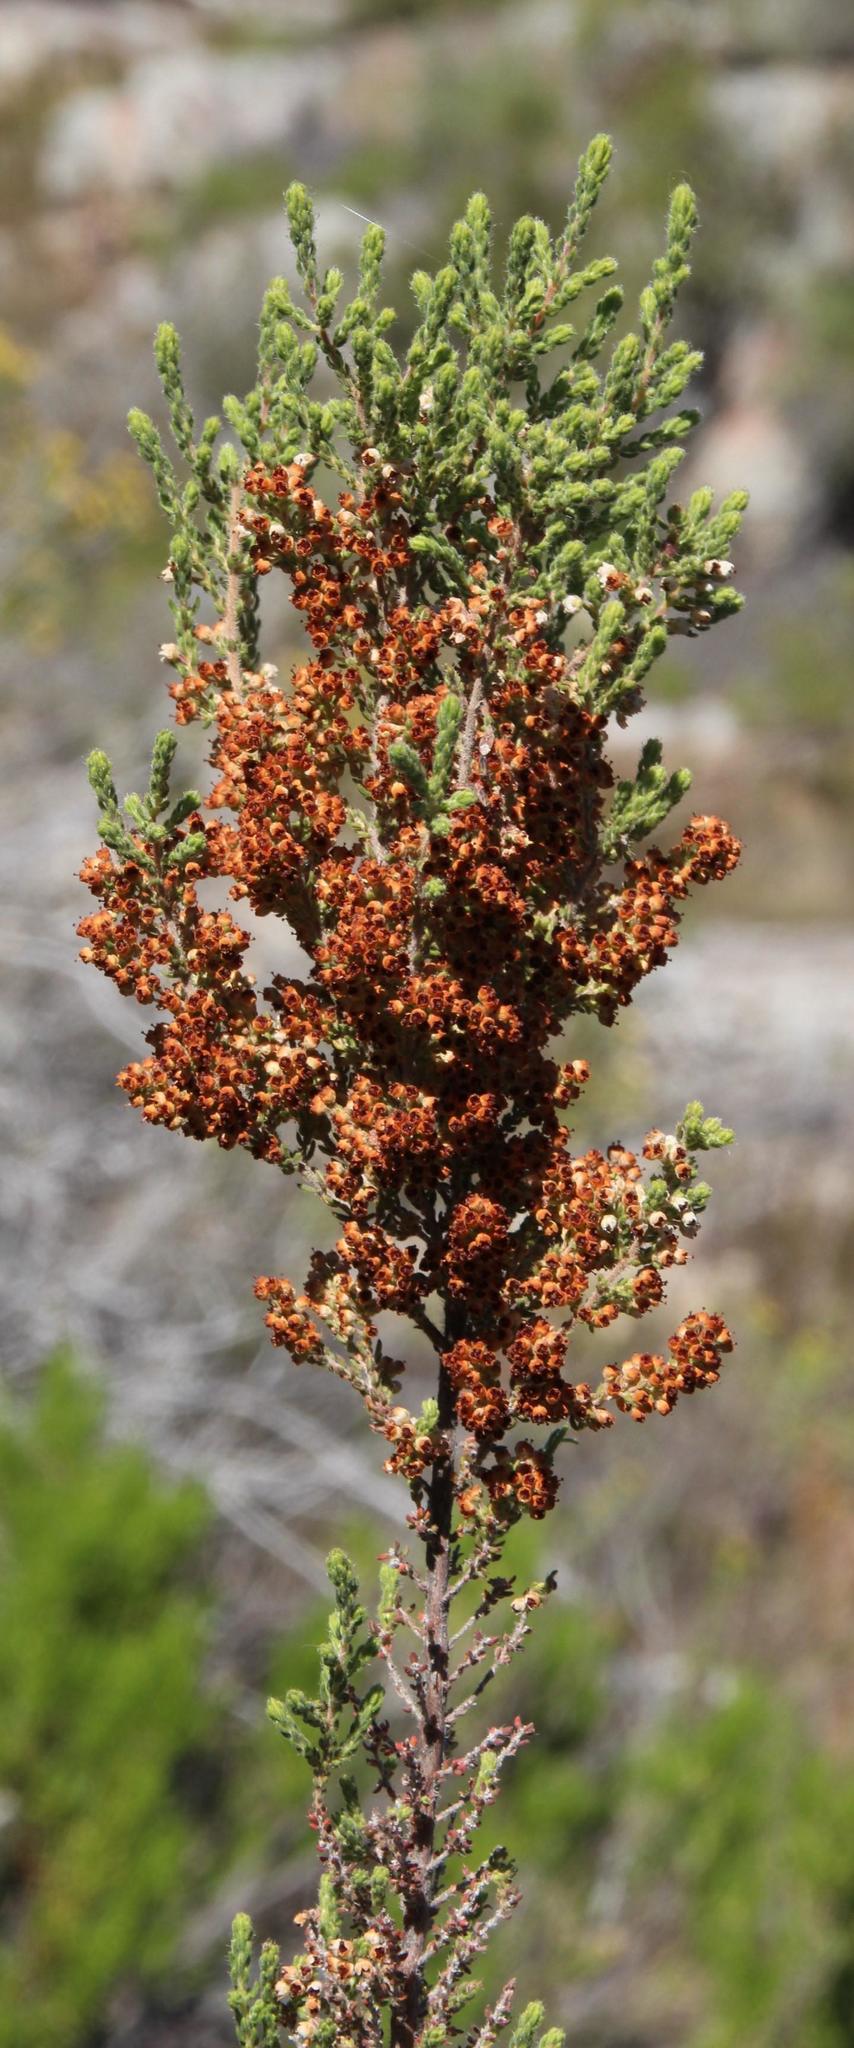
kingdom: Plantae
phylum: Tracheophyta
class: Magnoliopsida
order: Ericales
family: Ericaceae
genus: Erica
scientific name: Erica setacea
